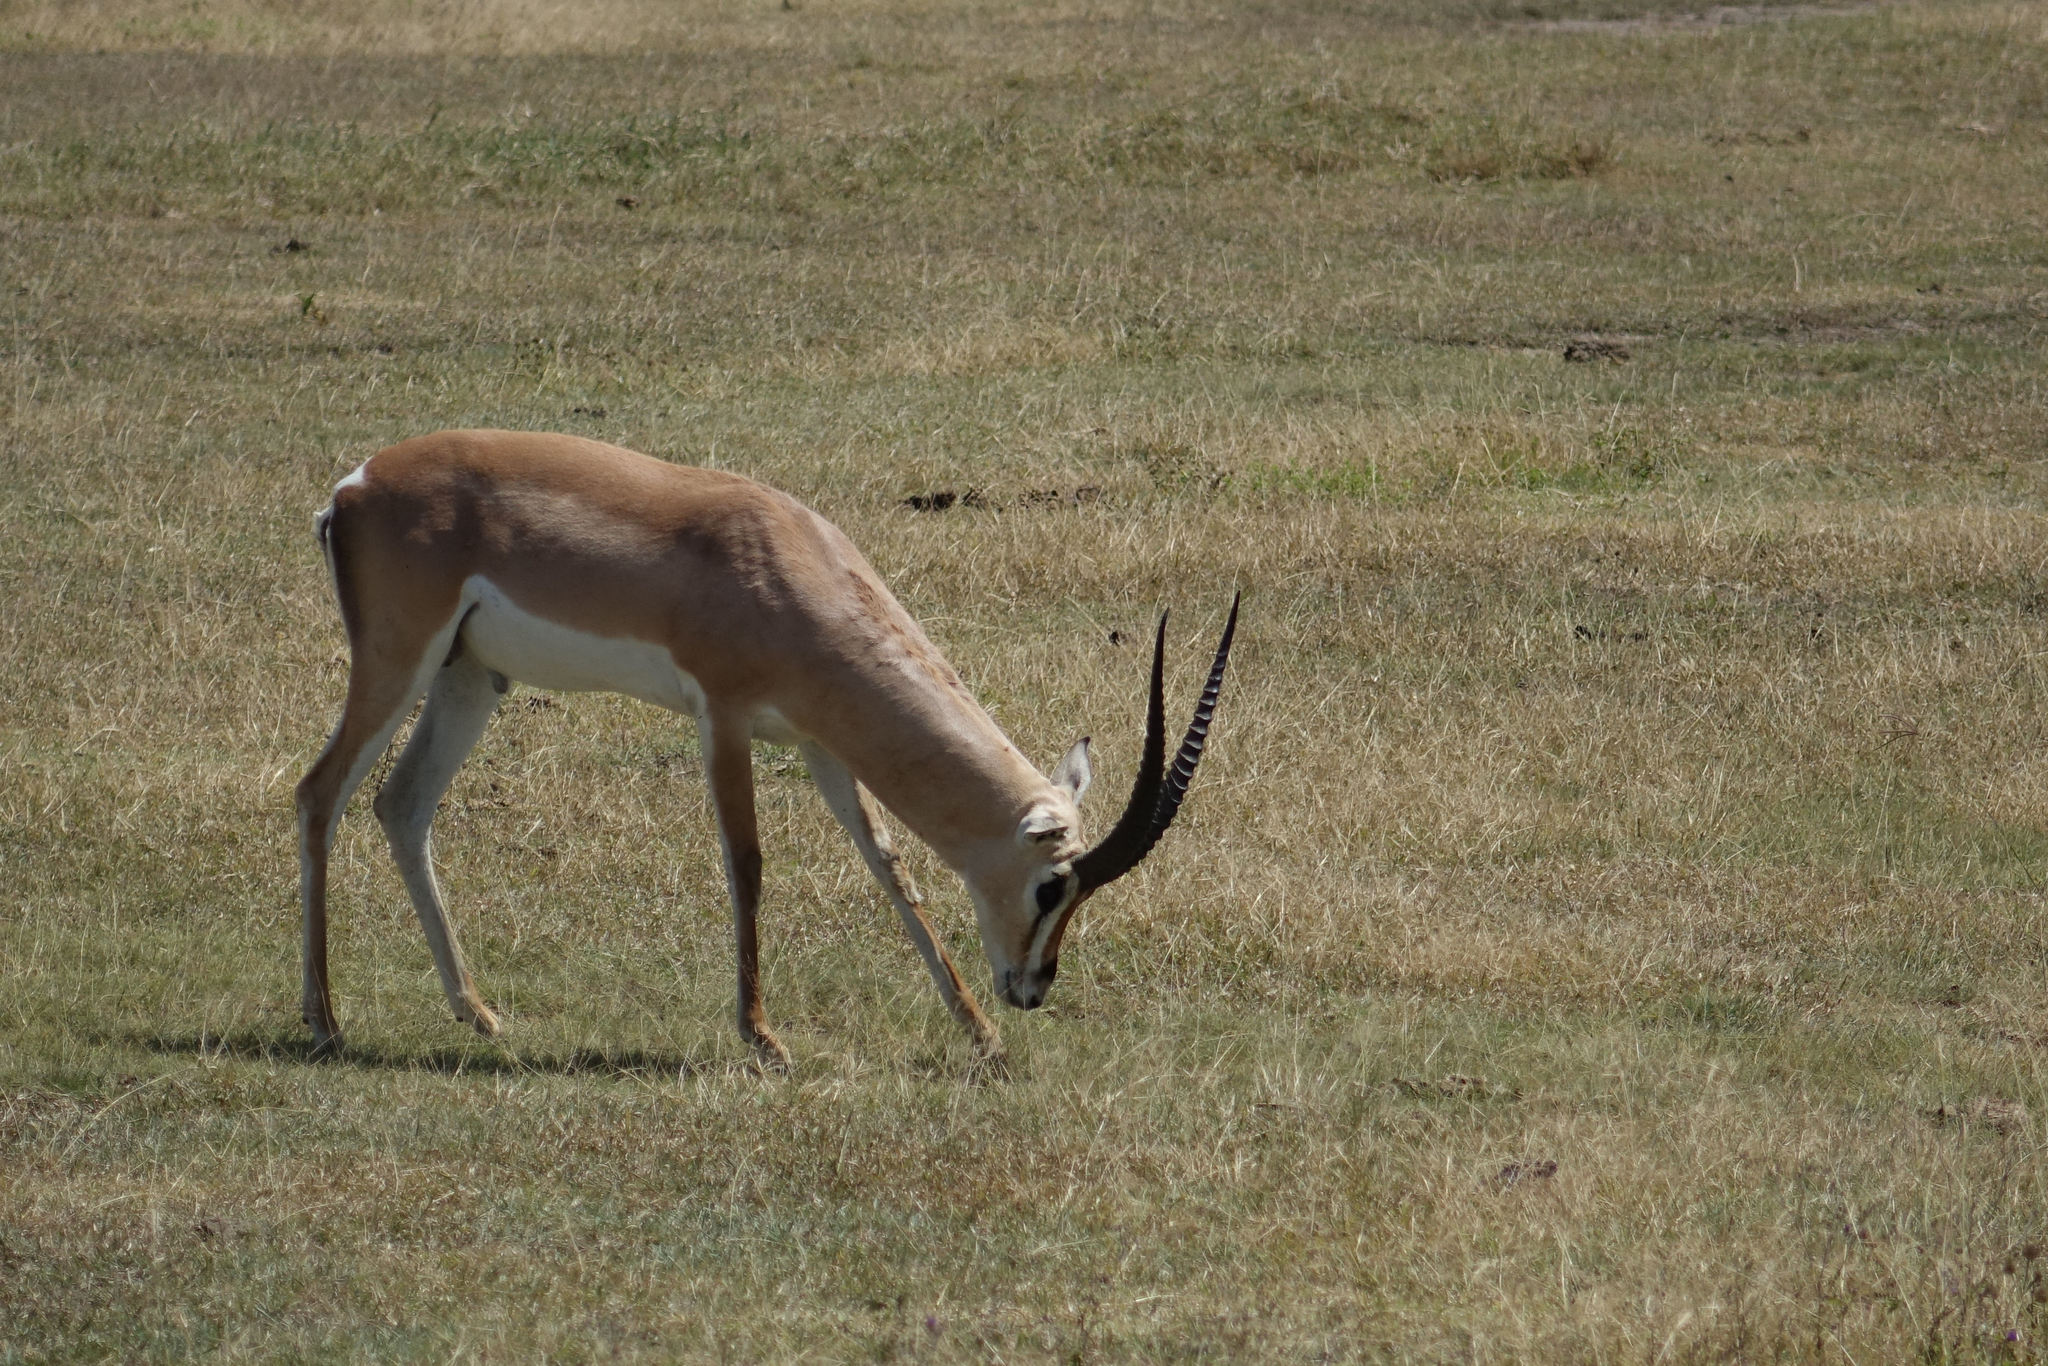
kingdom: Animalia
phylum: Chordata
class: Mammalia
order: Artiodactyla
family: Bovidae
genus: Nanger
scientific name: Nanger granti
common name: Grant's gazelle
